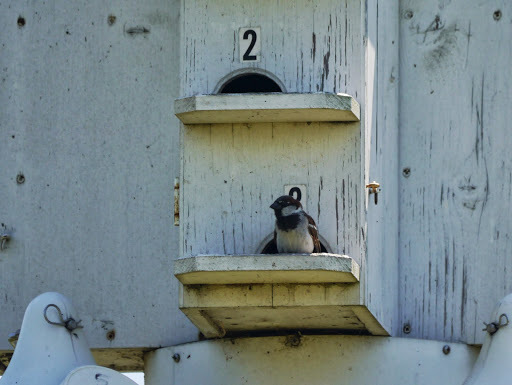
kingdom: Animalia
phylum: Chordata
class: Aves
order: Passeriformes
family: Passeridae
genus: Passer
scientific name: Passer domesticus
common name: House sparrow
